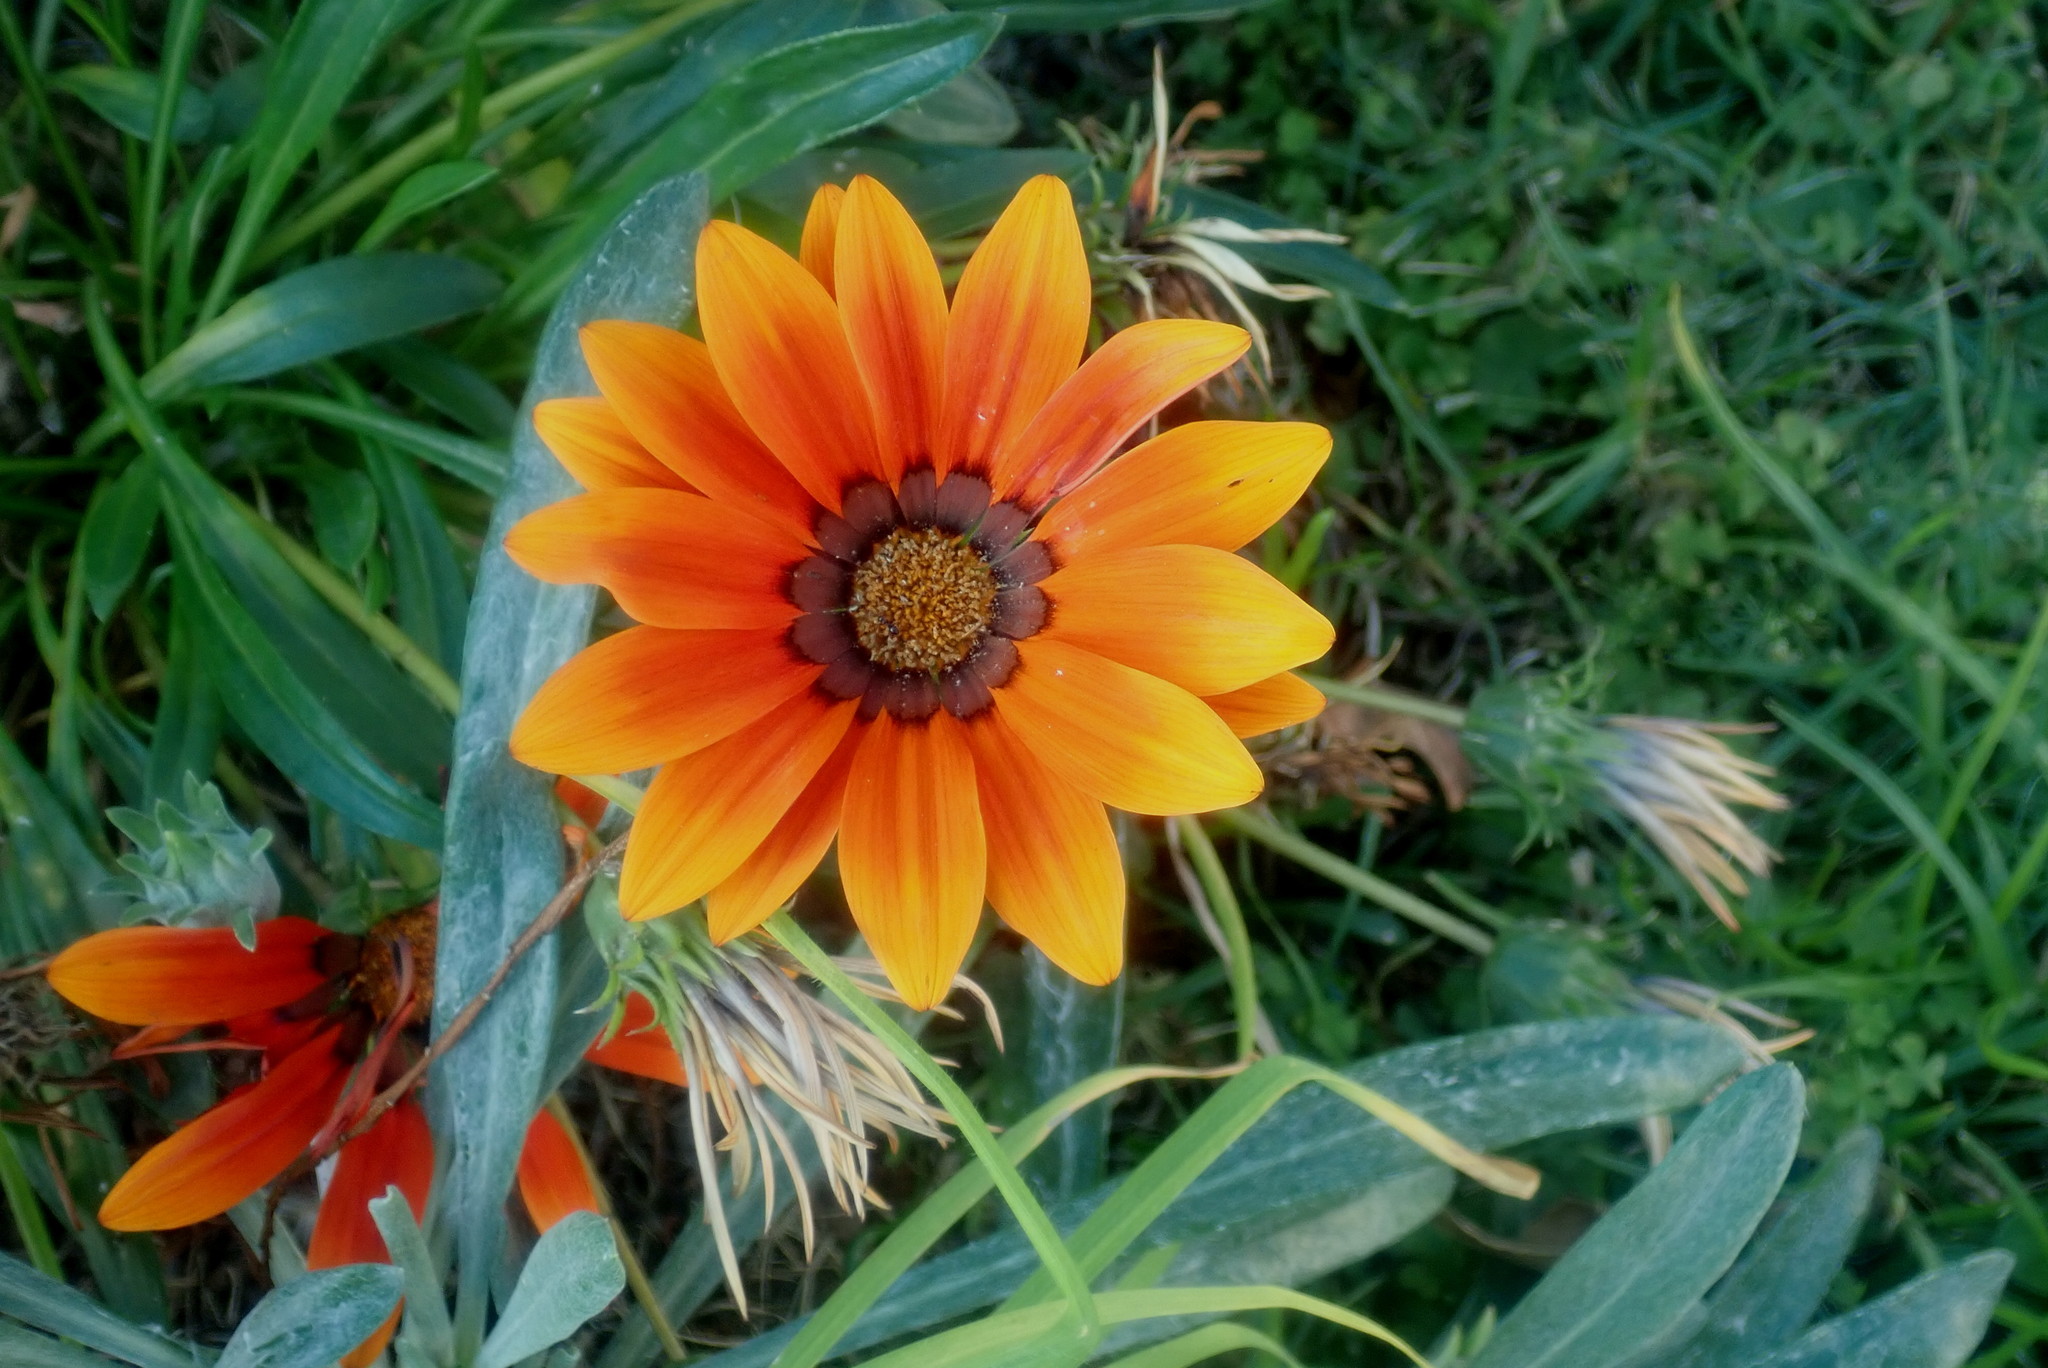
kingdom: Plantae
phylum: Tracheophyta
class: Magnoliopsida
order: Asterales
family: Asteraceae
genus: Gazania
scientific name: Gazania splendens
